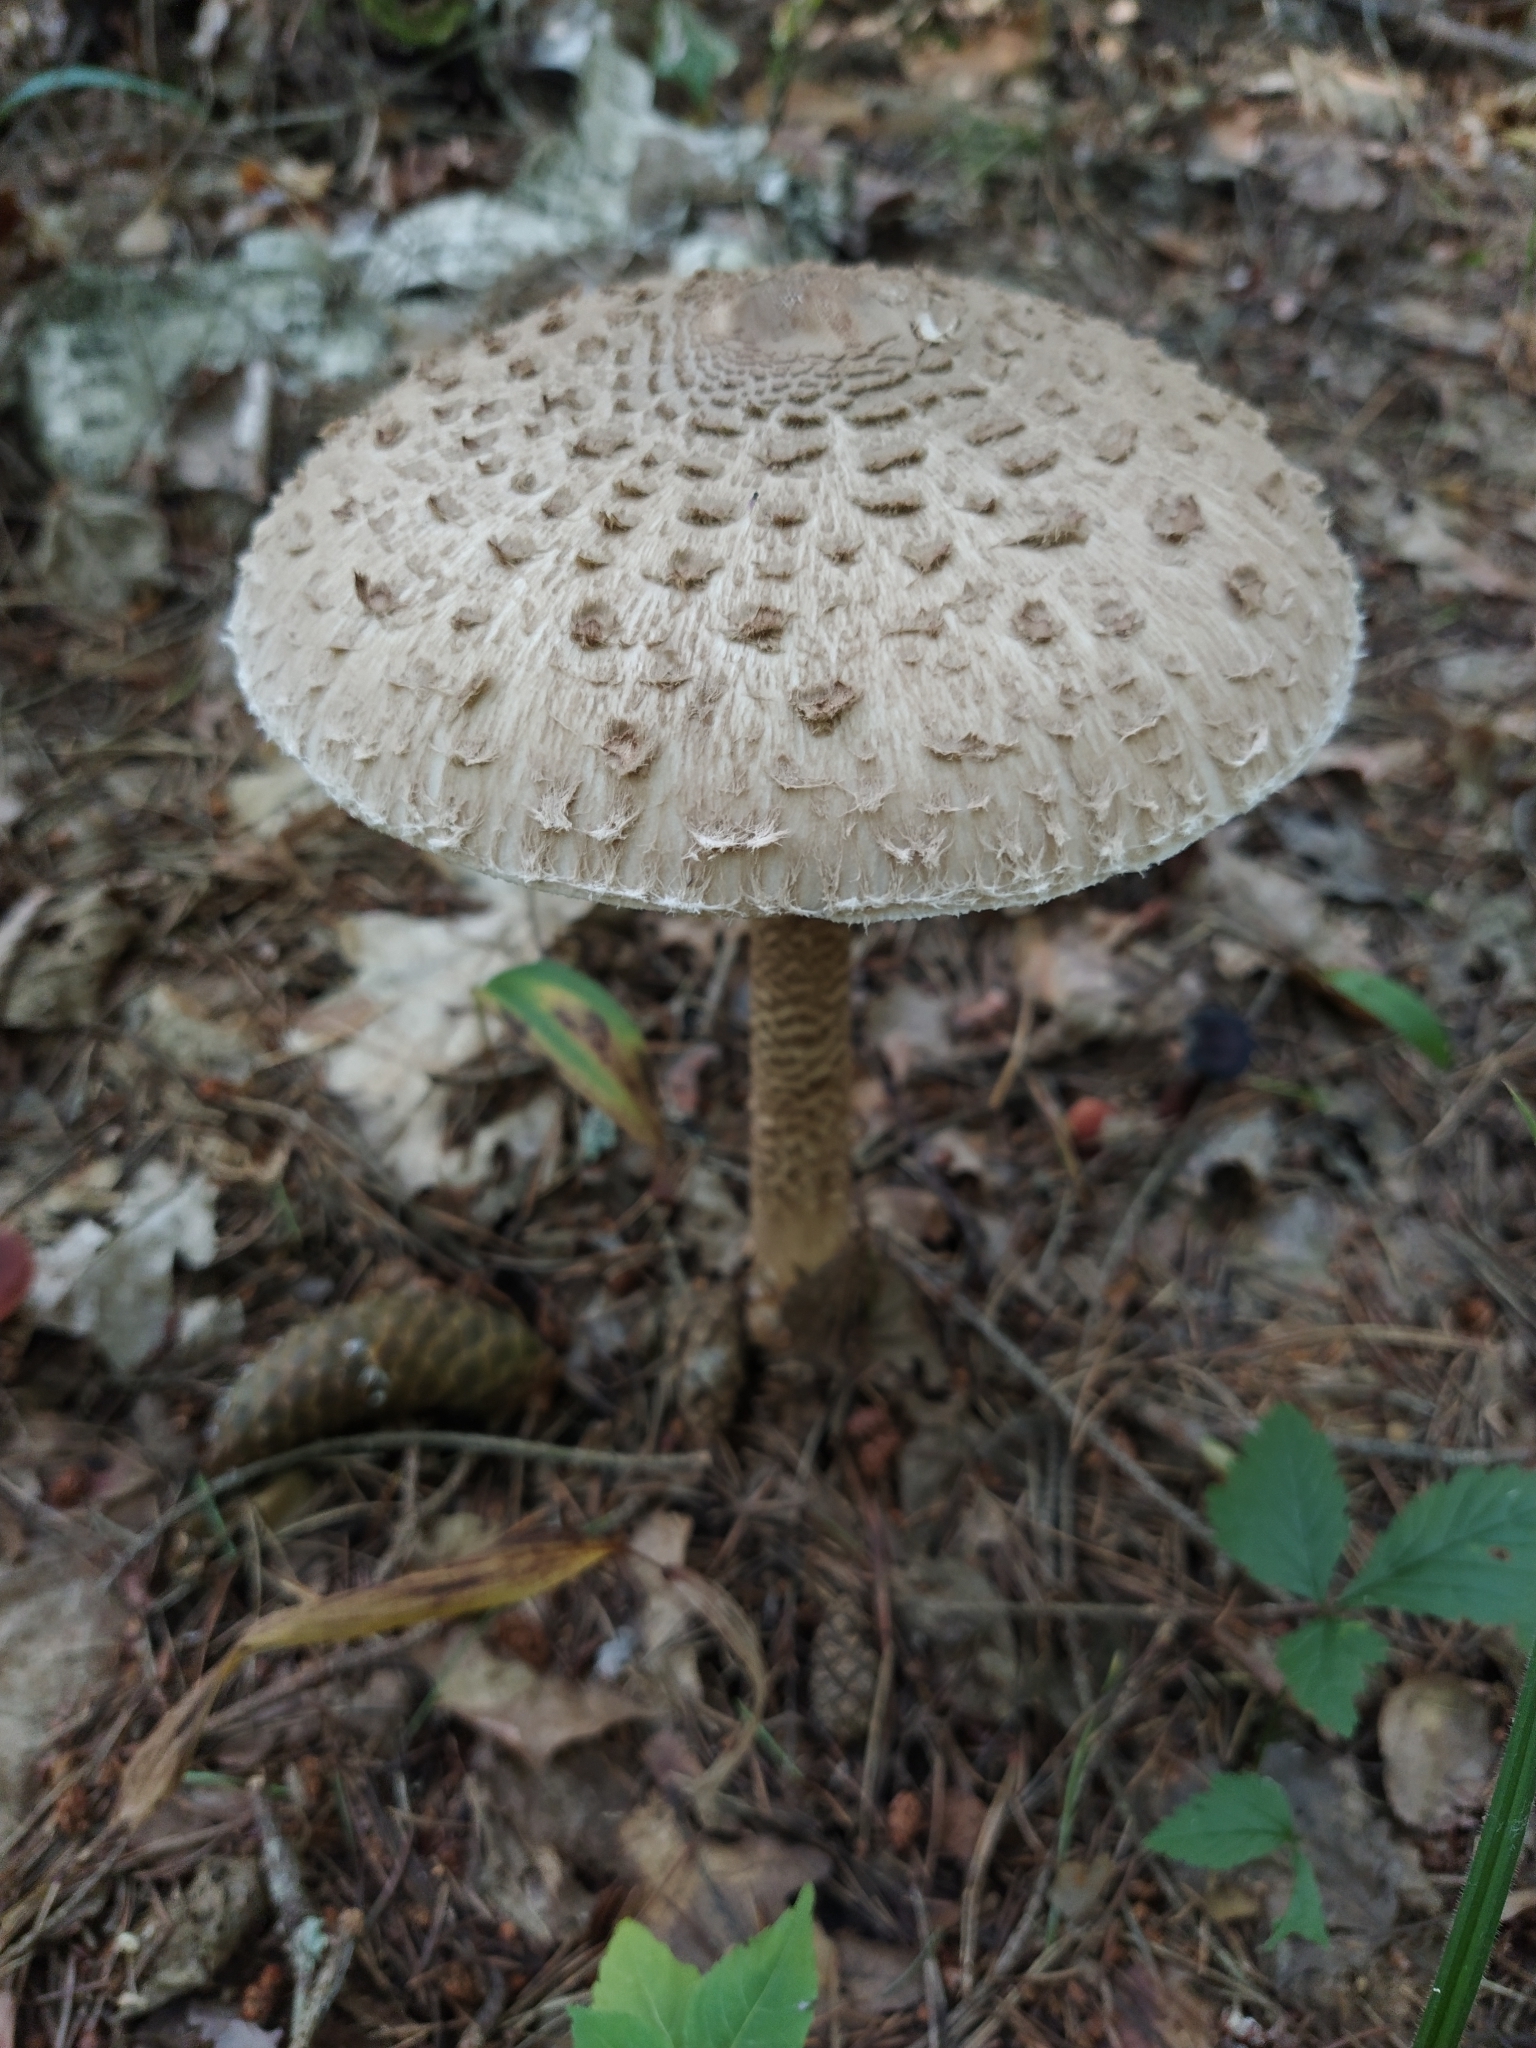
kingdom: Fungi
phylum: Basidiomycota
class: Agaricomycetes
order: Agaricales
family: Agaricaceae
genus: Macrolepiota
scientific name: Macrolepiota procera
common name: Parasol
